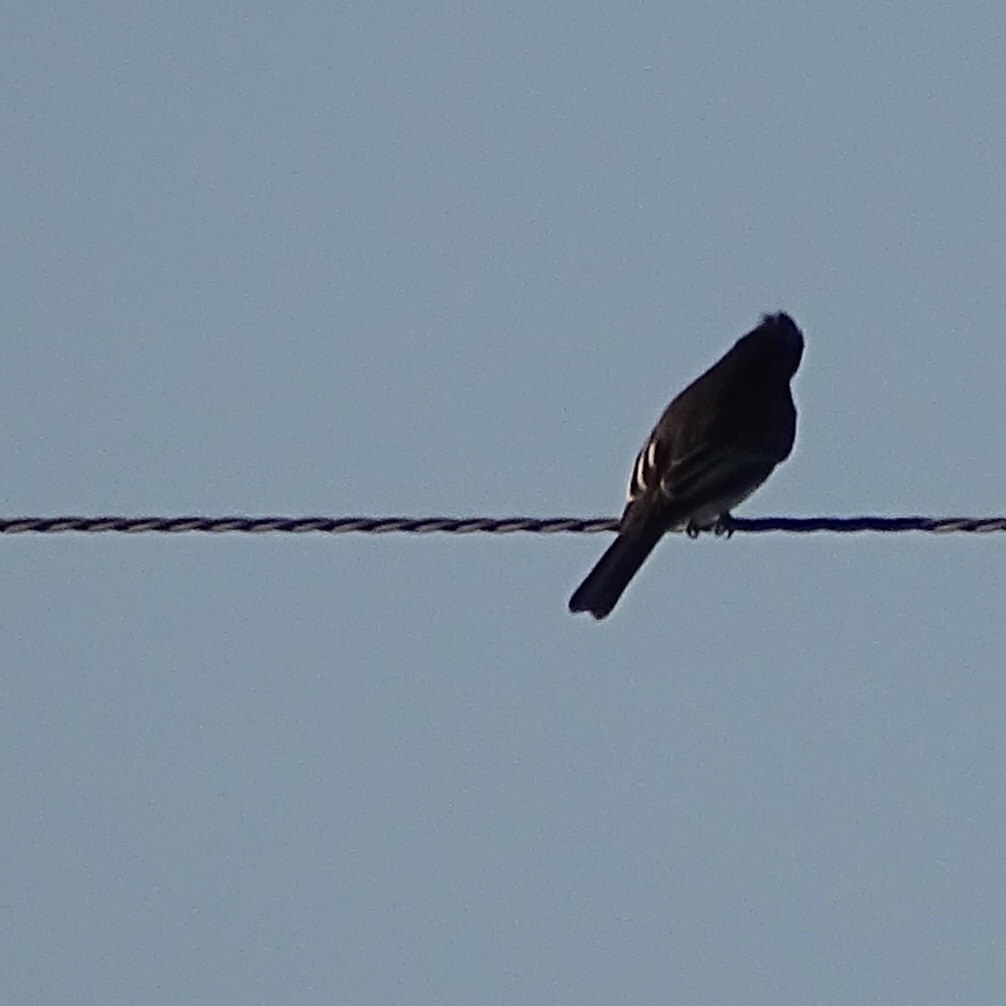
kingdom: Animalia
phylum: Chordata
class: Aves
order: Passeriformes
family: Tyrannidae
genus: Sayornis
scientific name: Sayornis nigricans
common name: Black phoebe
